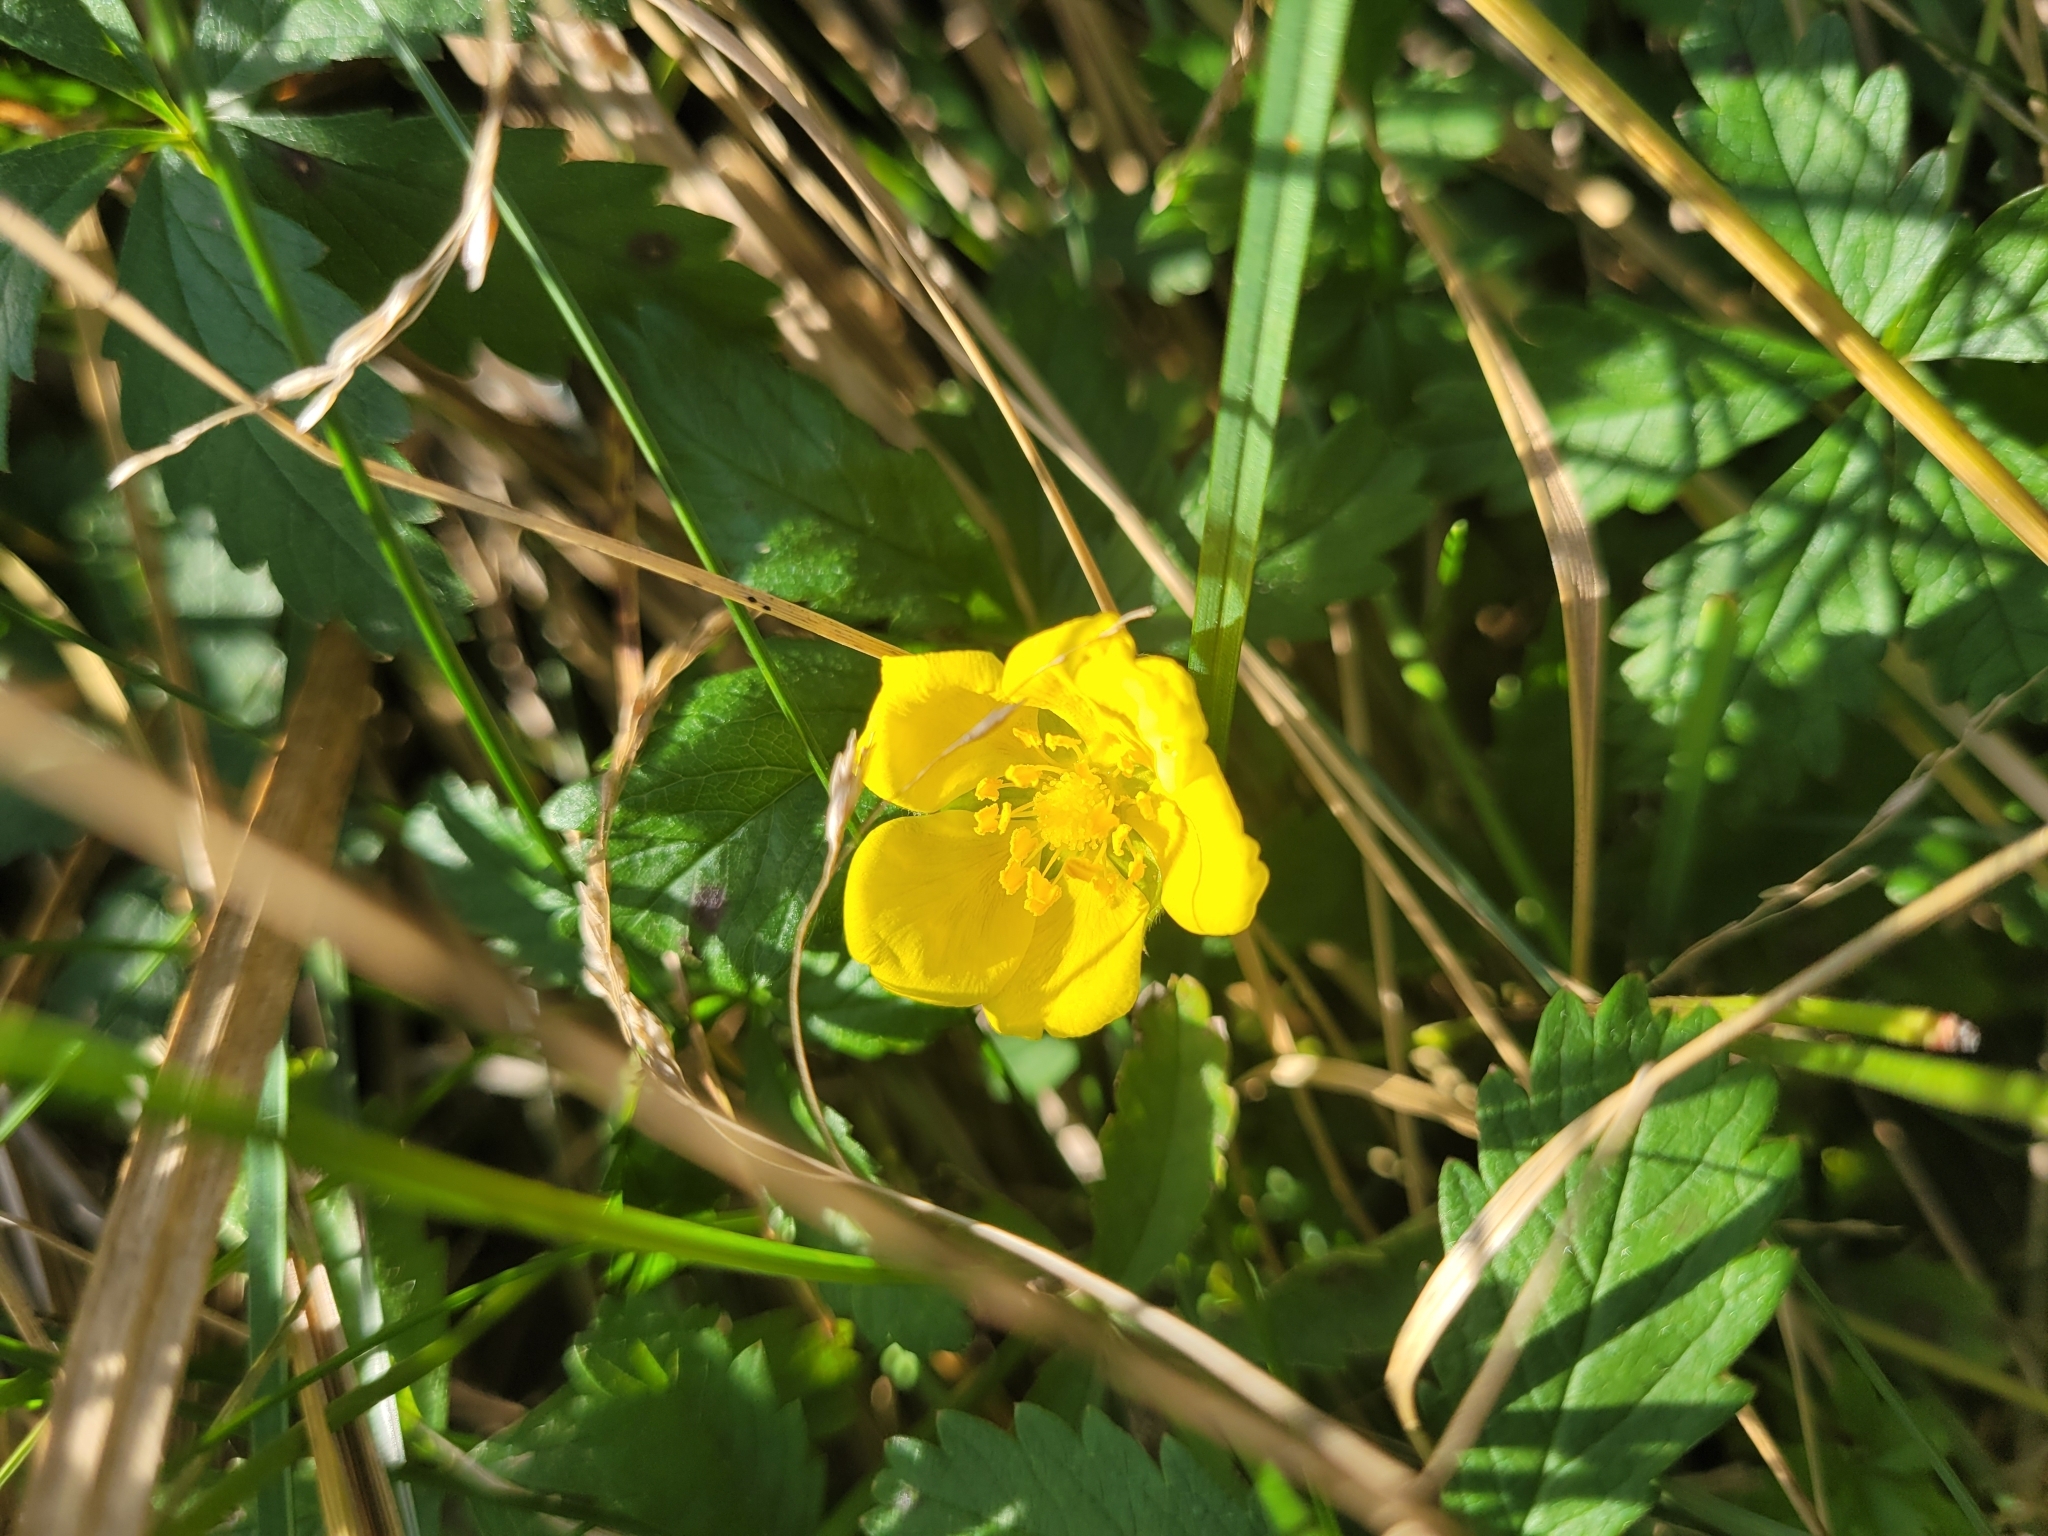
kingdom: Plantae
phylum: Tracheophyta
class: Magnoliopsida
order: Rosales
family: Rosaceae
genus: Potentilla
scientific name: Potentilla reptans
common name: Creeping cinquefoil
